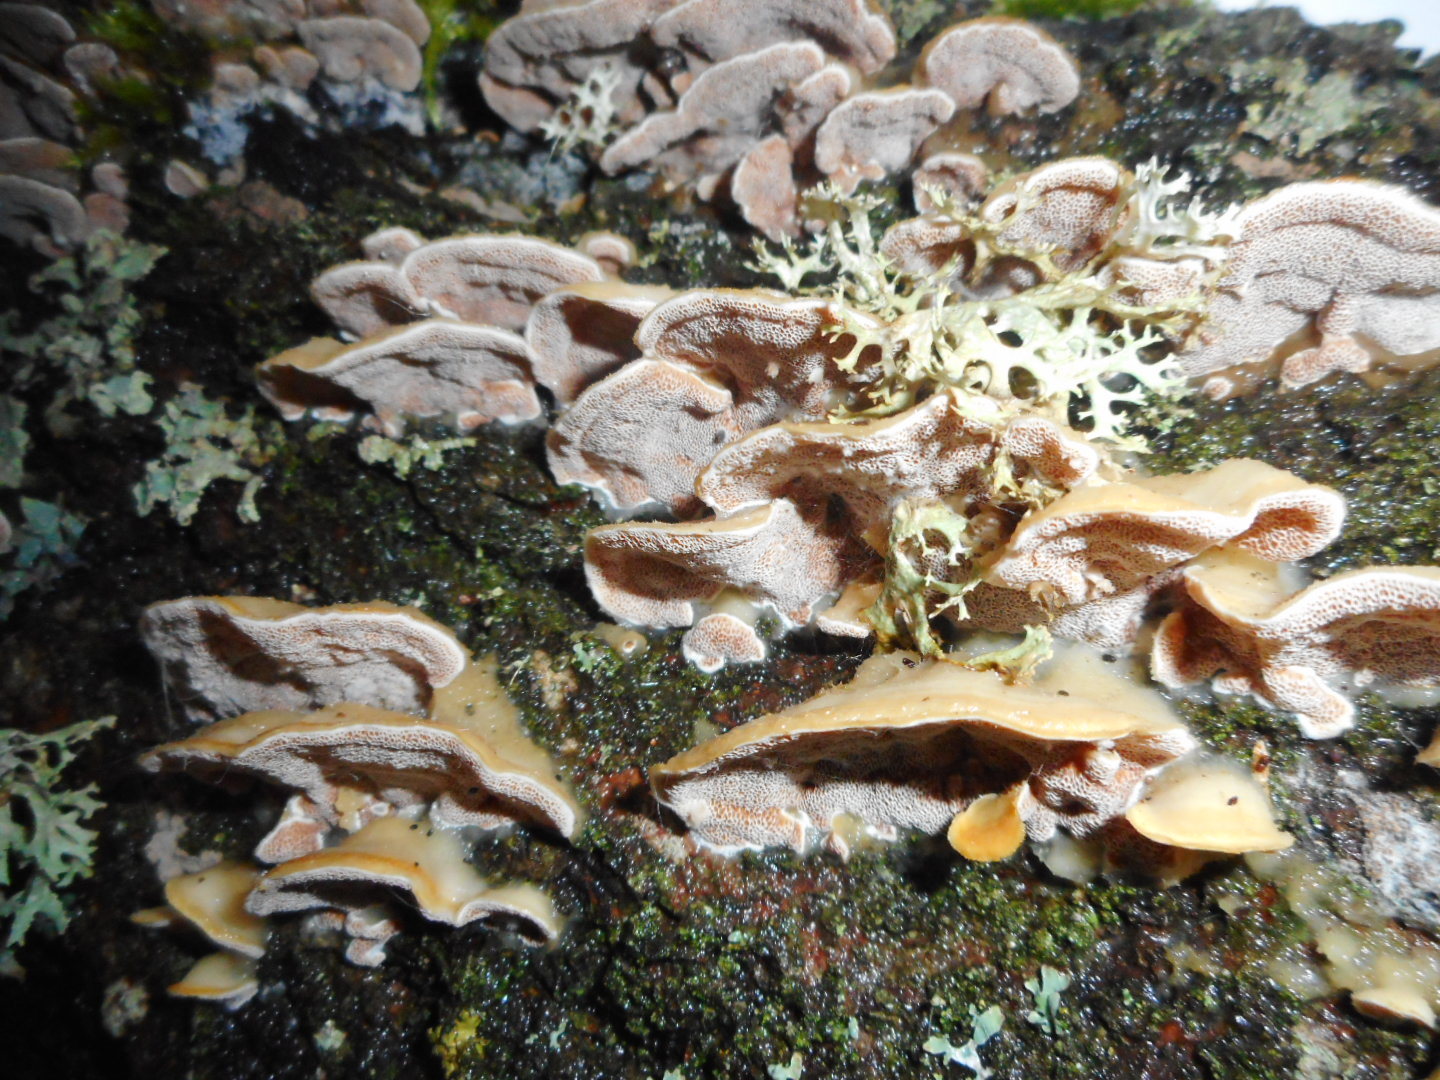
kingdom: Fungi
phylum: Basidiomycota
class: Agaricomycetes
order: Polyporales
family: Irpicaceae
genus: Vitreoporus
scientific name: Vitreoporus dichrous
